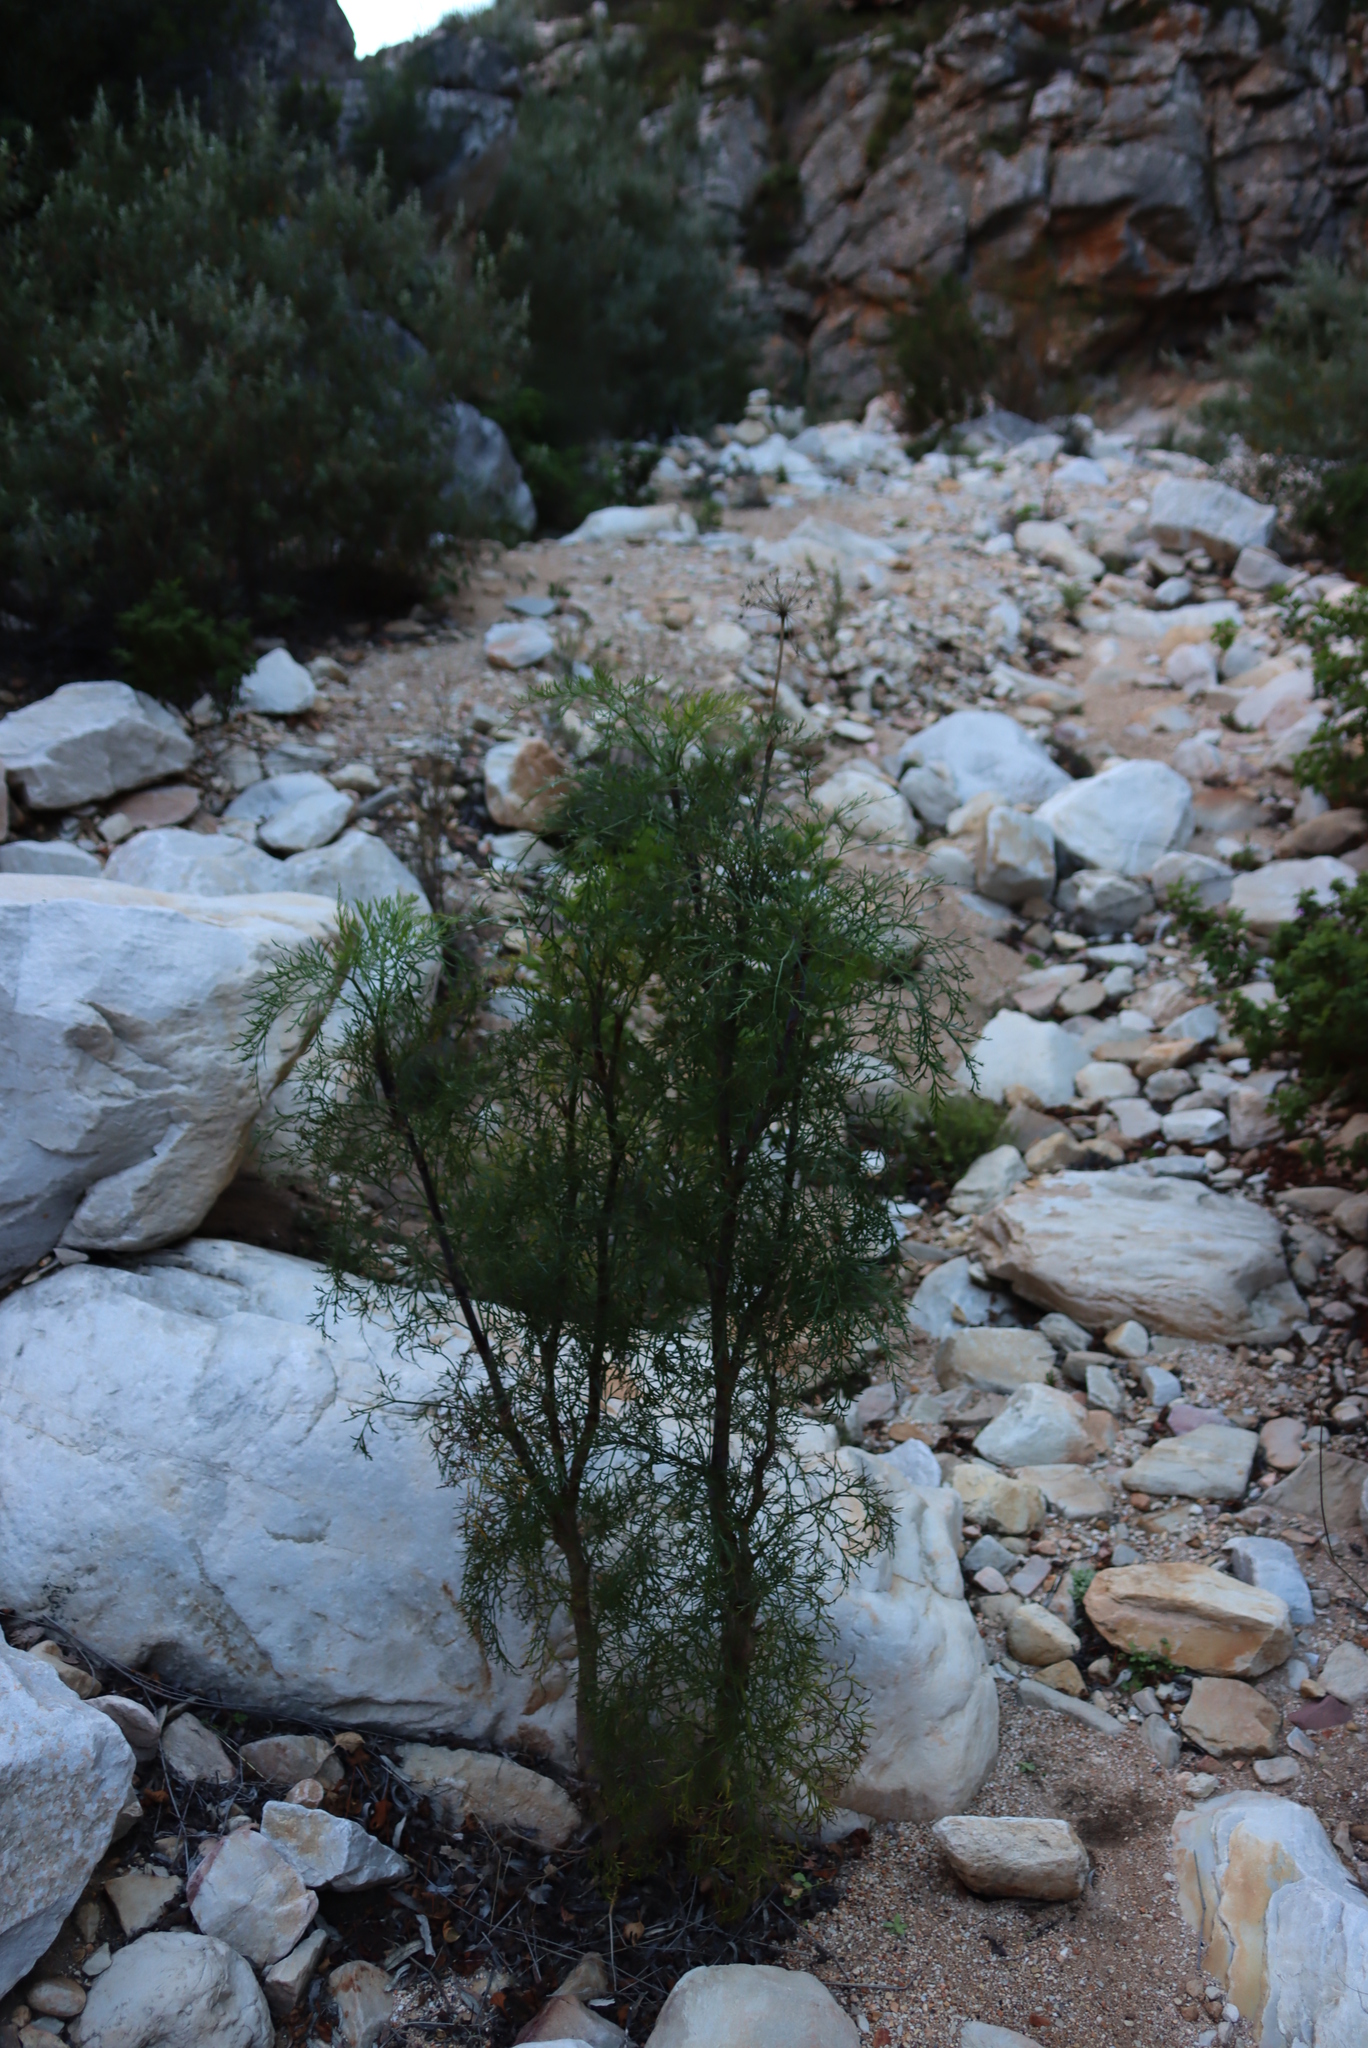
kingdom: Plantae
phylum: Tracheophyta
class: Magnoliopsida
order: Apiales
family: Apiaceae
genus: Notobubon
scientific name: Notobubon tenuifolium
